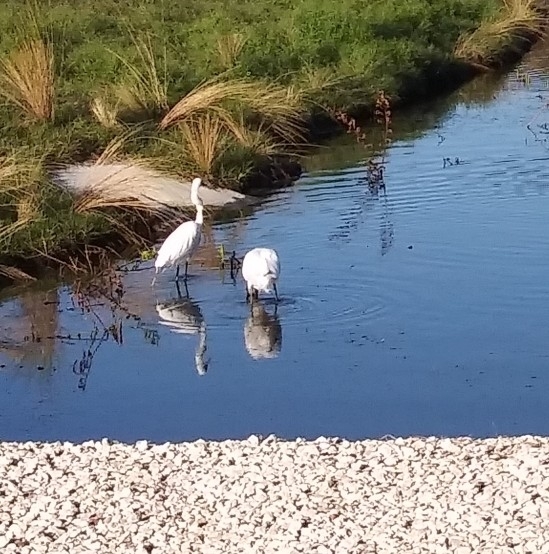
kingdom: Animalia
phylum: Chordata
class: Aves
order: Pelecaniformes
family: Ardeidae
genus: Ardea
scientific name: Ardea alba
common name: Great egret
